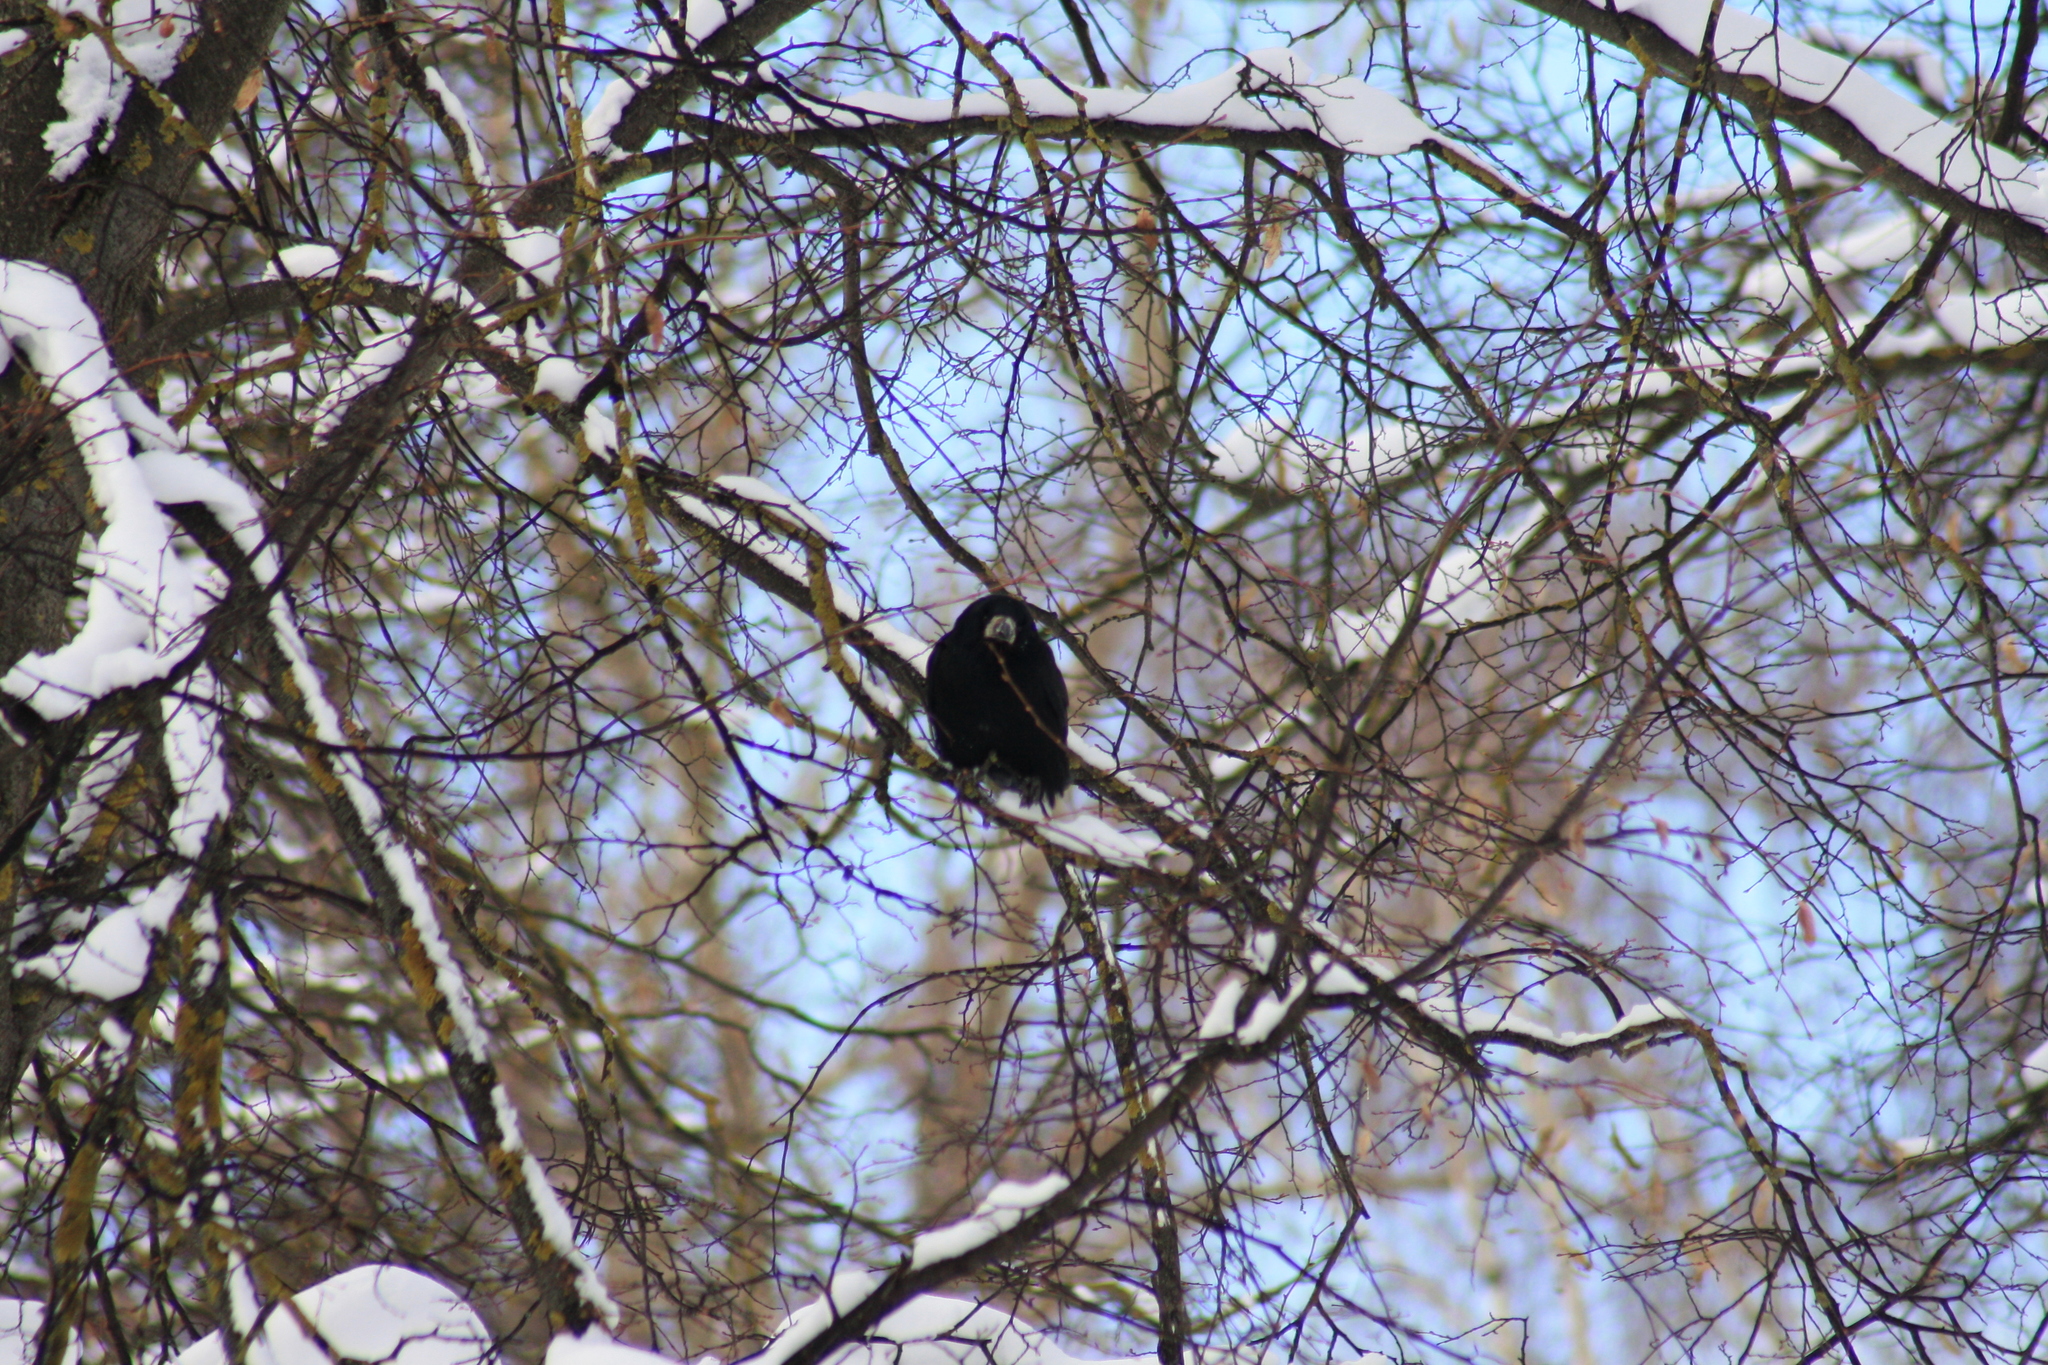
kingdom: Animalia
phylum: Chordata
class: Aves
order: Passeriformes
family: Corvidae
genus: Corvus
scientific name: Corvus frugilegus
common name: Rook
